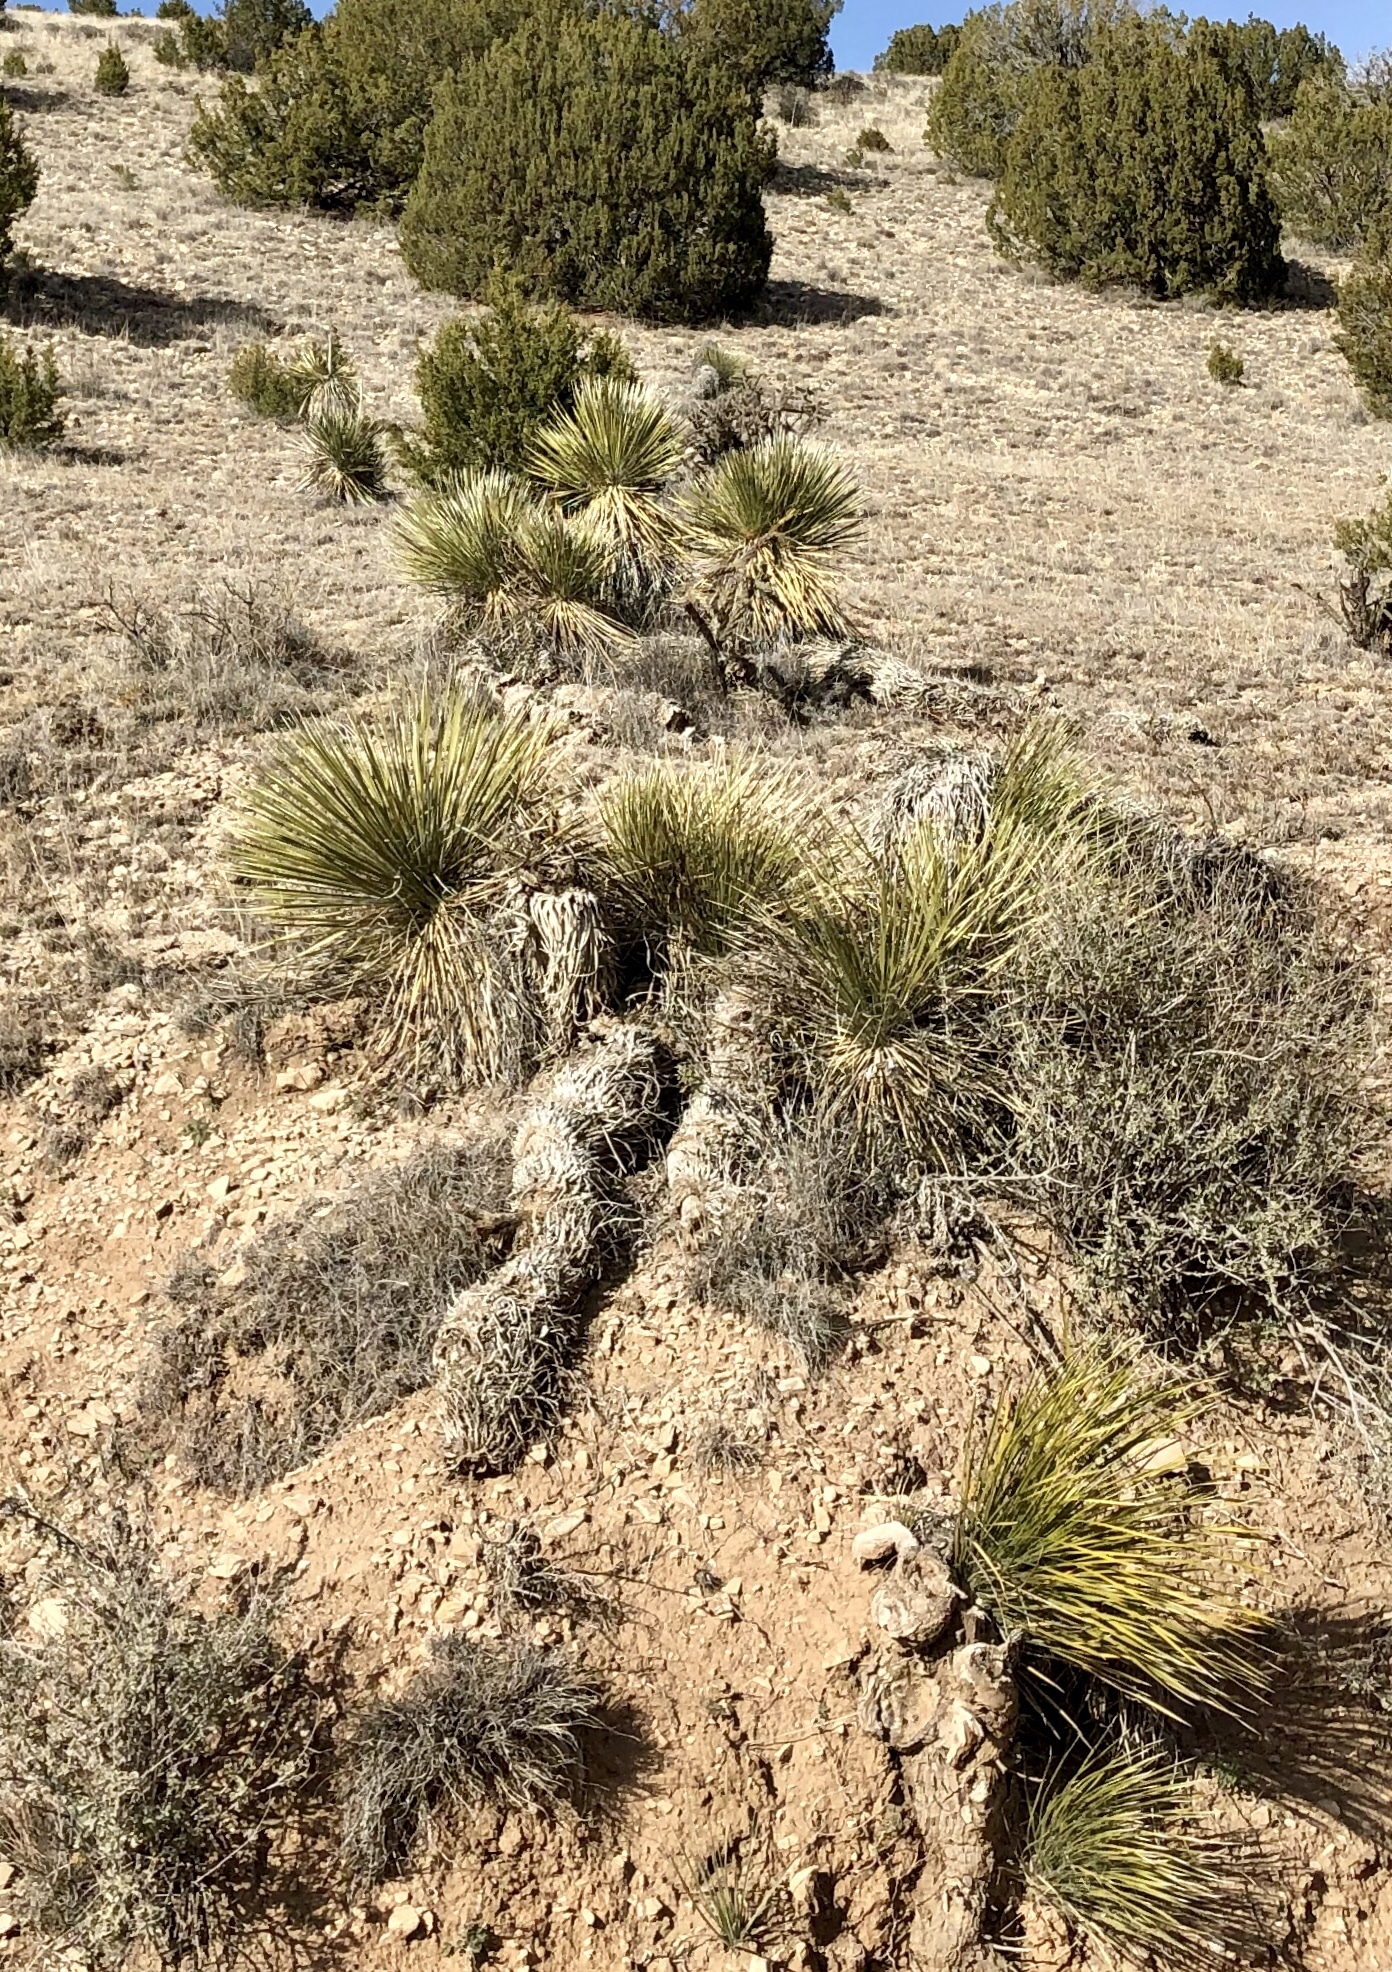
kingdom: Plantae
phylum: Tracheophyta
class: Liliopsida
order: Asparagales
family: Asparagaceae
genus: Yucca
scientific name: Yucca elata
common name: Palmella
